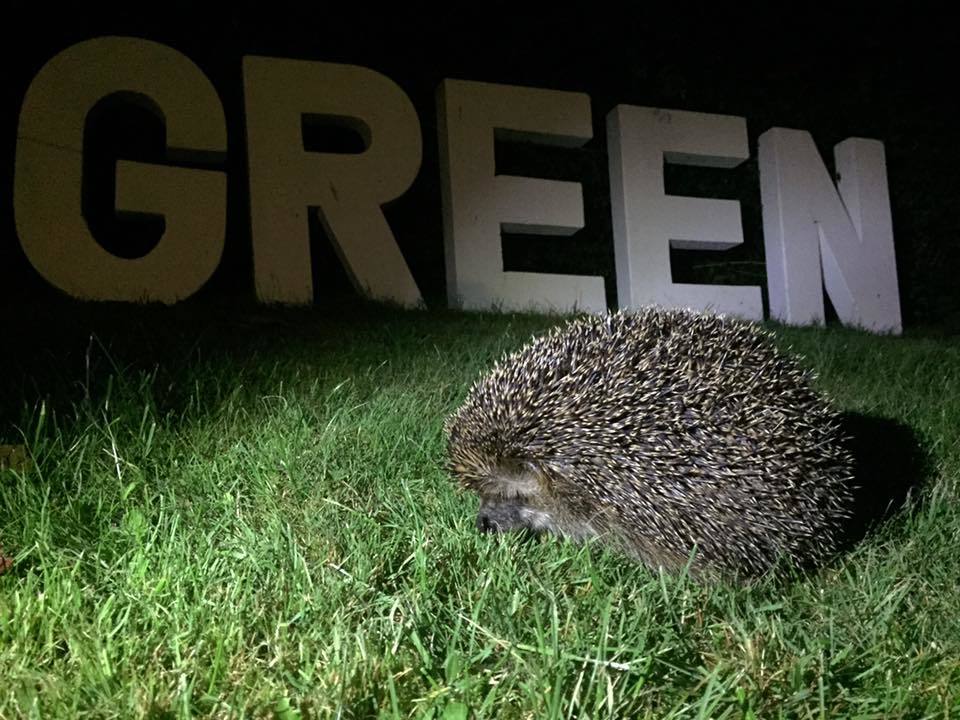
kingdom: Animalia
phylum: Chordata
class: Mammalia
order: Erinaceomorpha
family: Erinaceidae
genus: Erinaceus
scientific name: Erinaceus europaeus
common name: West european hedgehog
